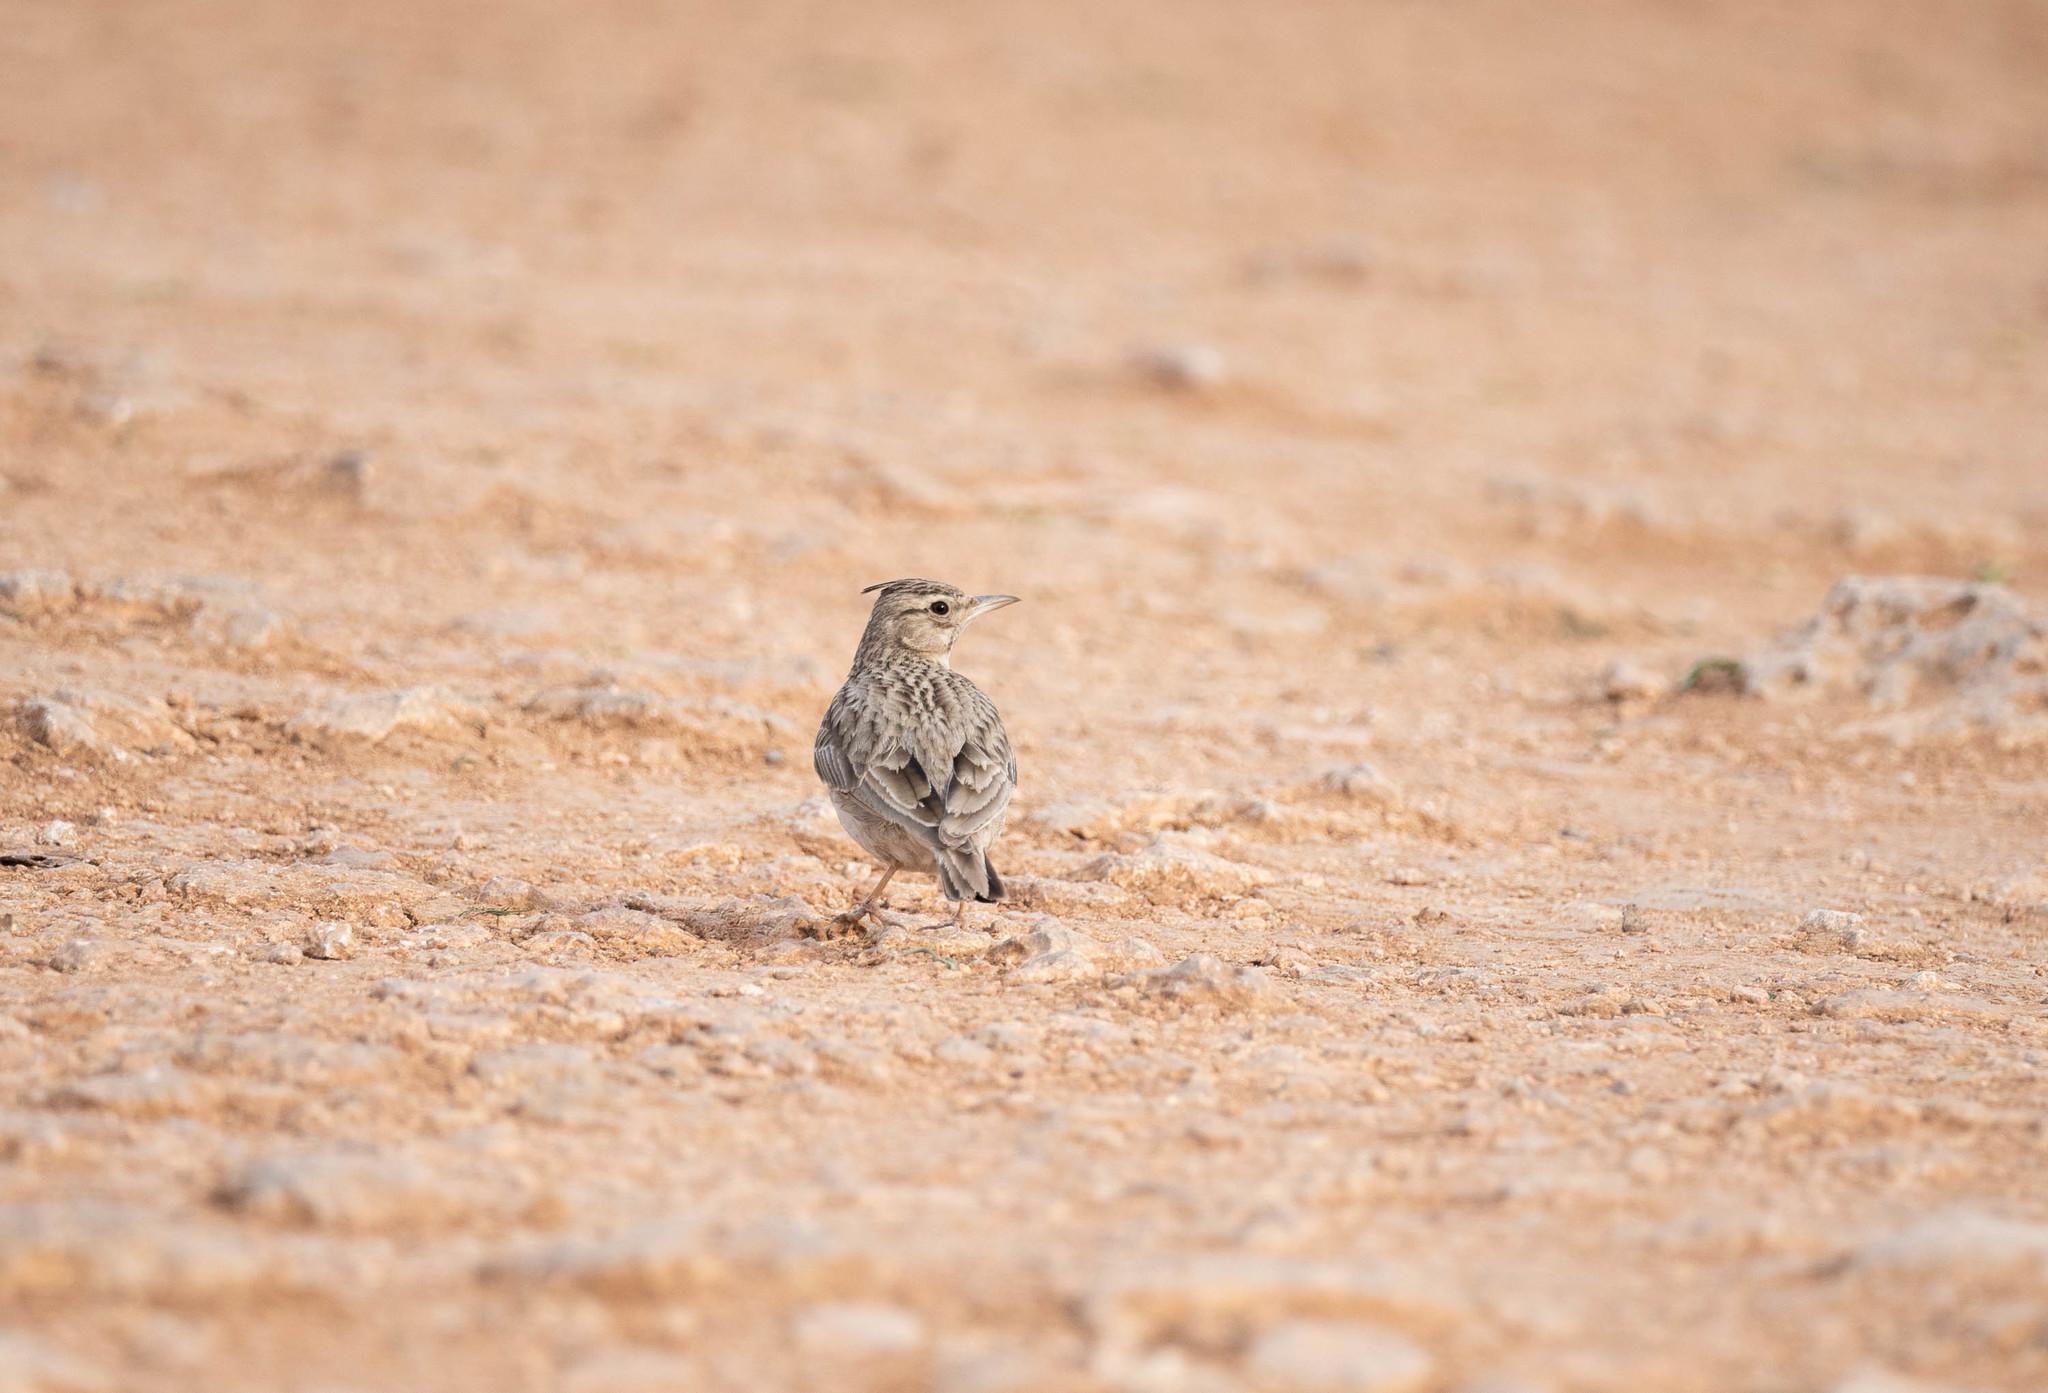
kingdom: Animalia
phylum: Chordata
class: Aves
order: Passeriformes
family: Alaudidae
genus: Galerida
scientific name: Galerida cristata
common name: Crested lark
